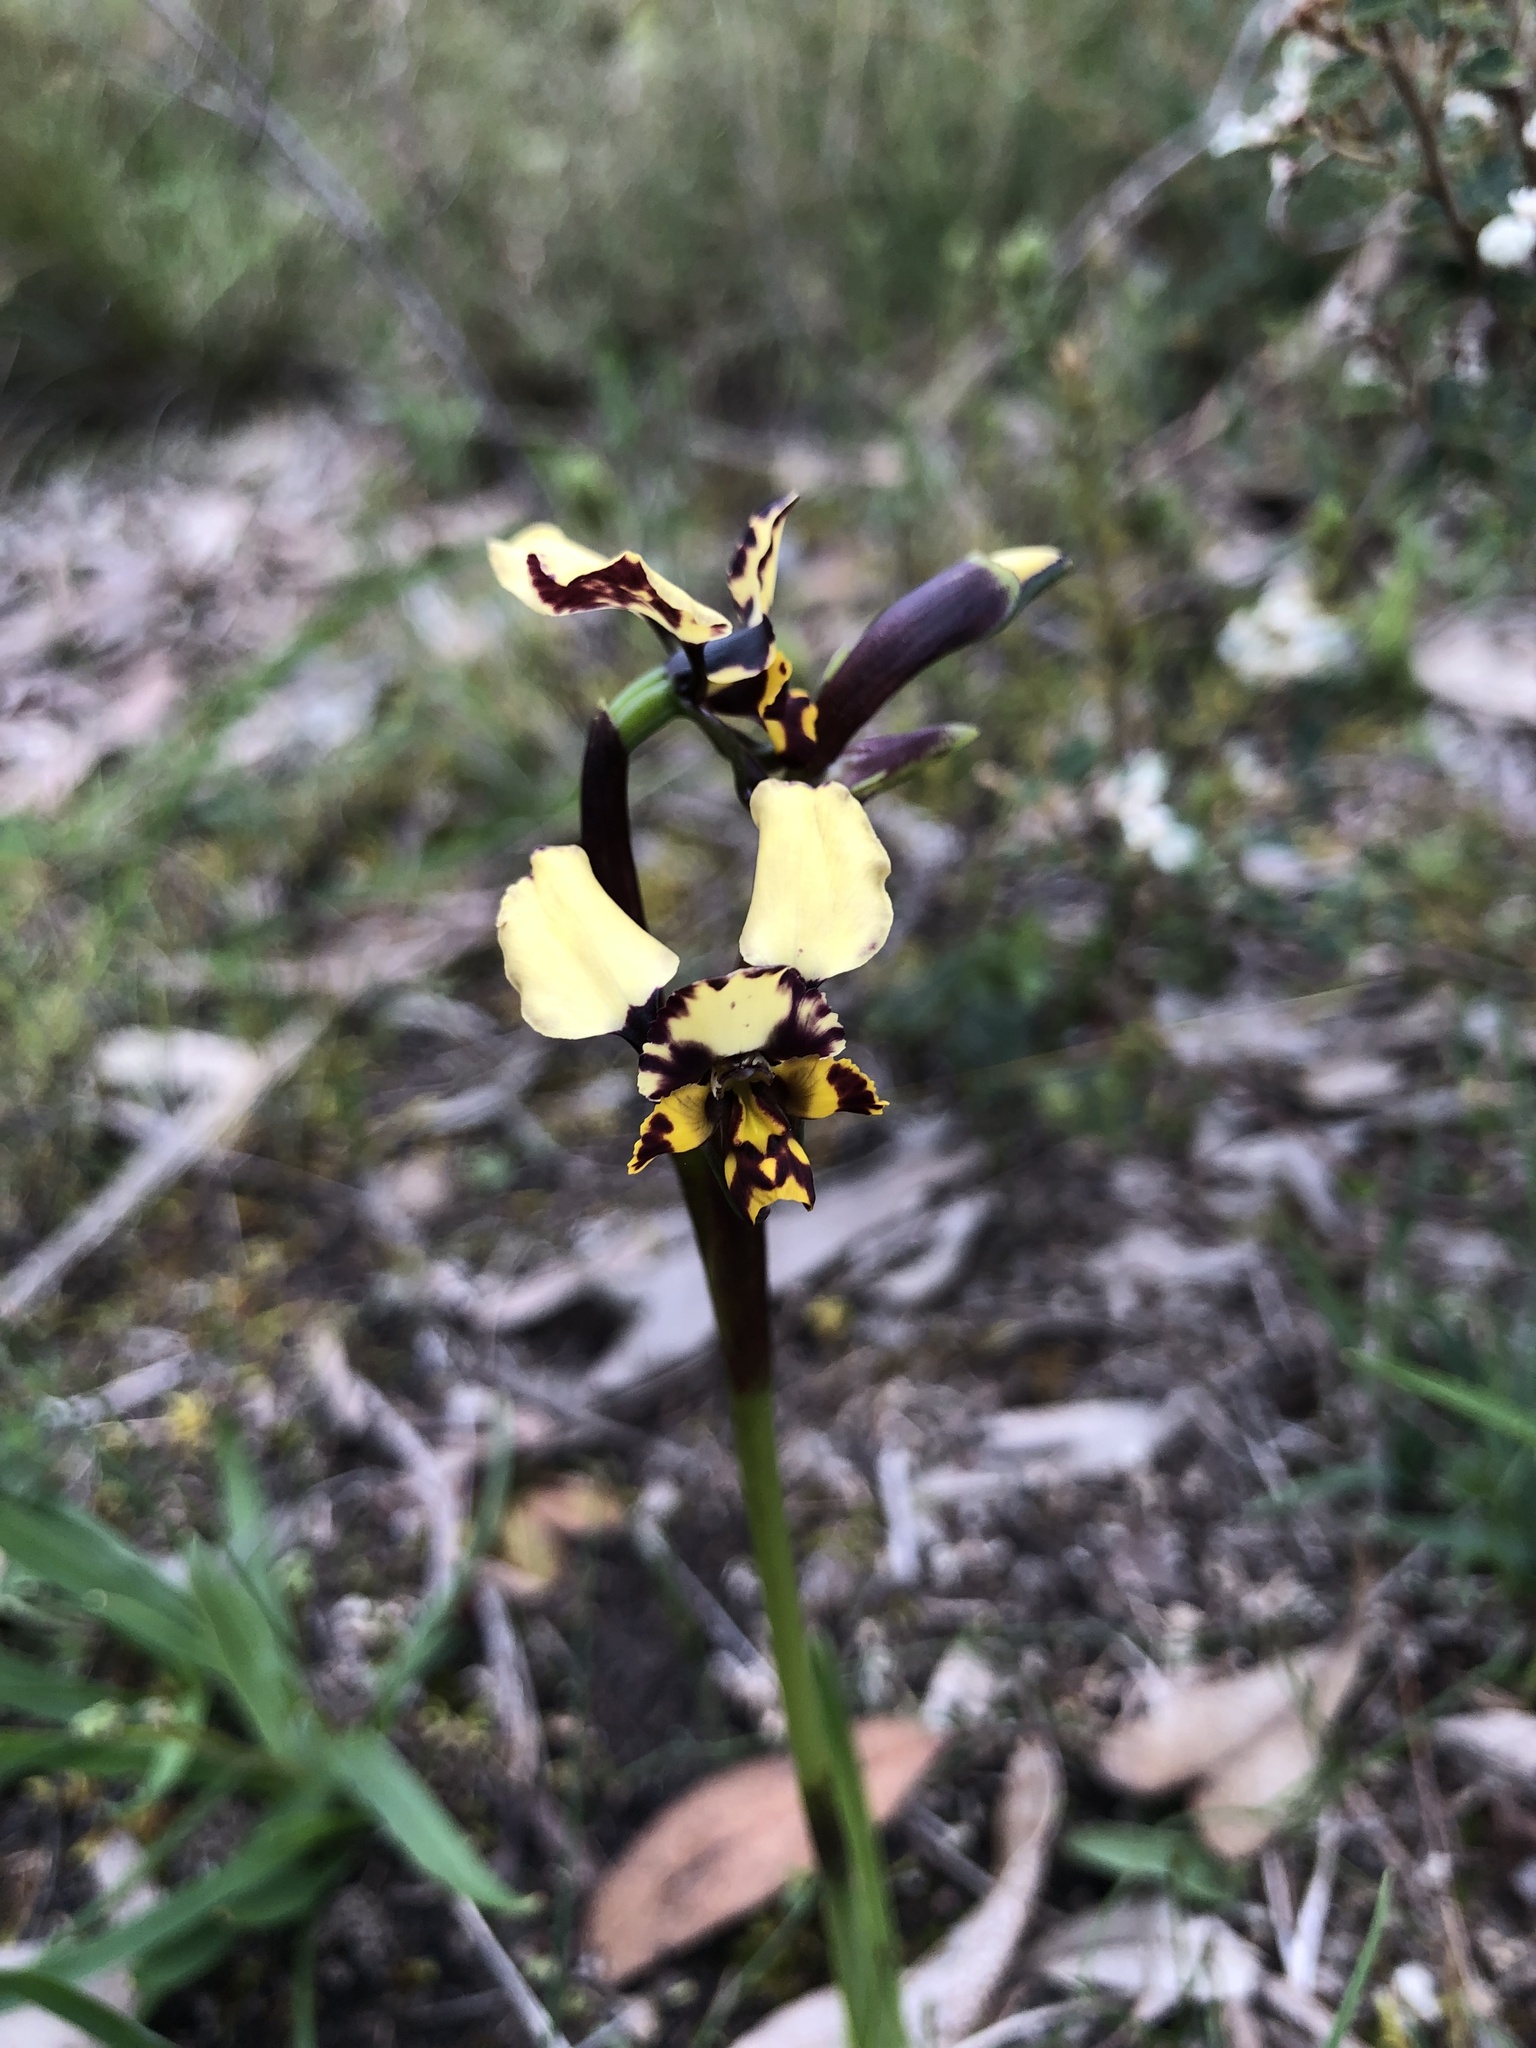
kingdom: Plantae
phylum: Tracheophyta
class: Liliopsida
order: Asparagales
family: Orchidaceae
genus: Diuris
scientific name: Diuris pardina
